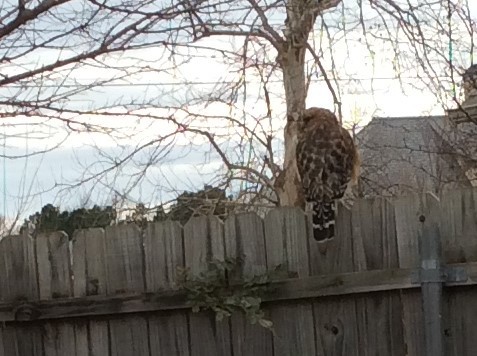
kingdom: Animalia
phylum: Chordata
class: Aves
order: Accipitriformes
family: Accipitridae
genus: Buteo
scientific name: Buteo lineatus
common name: Red-shouldered hawk
